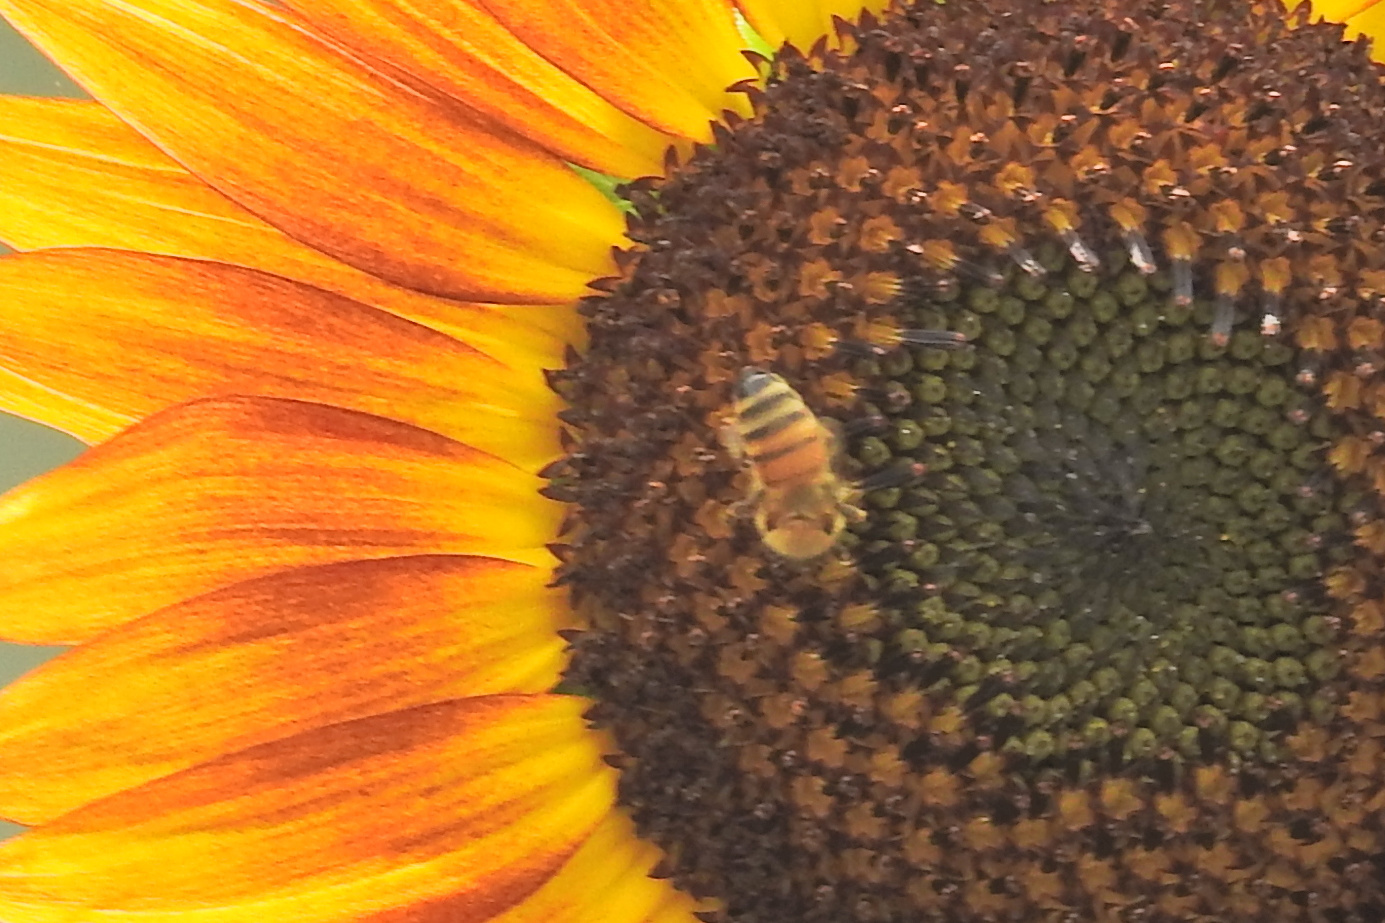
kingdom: Animalia
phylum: Arthropoda
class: Insecta
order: Hymenoptera
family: Apidae
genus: Apis
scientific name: Apis mellifera
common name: Honey bee
